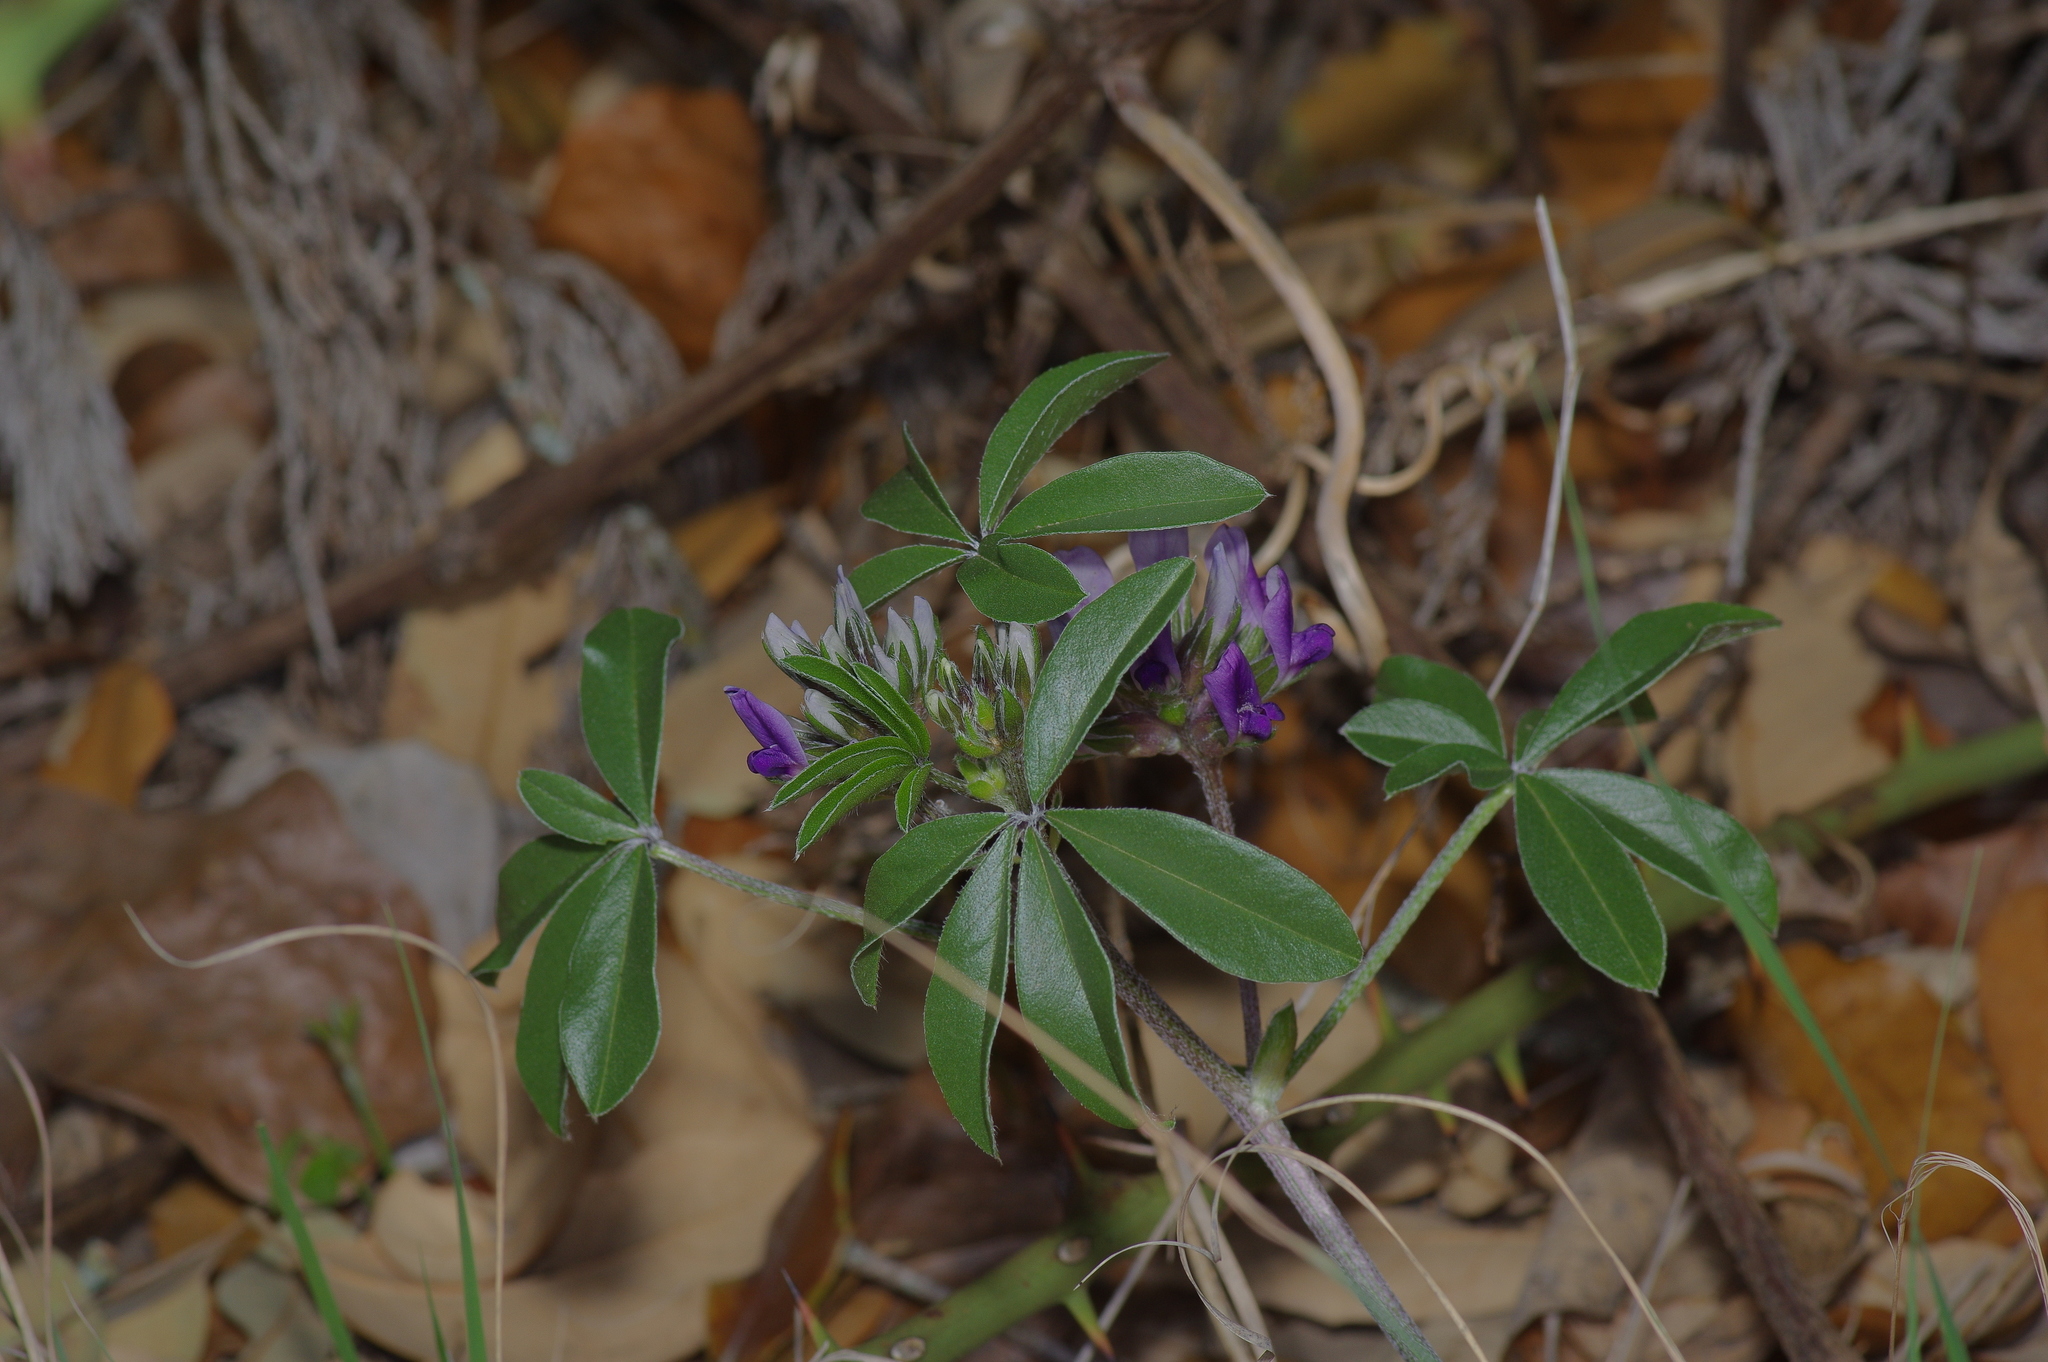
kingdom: Plantae
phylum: Tracheophyta
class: Magnoliopsida
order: Fabales
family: Fabaceae
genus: Pediomelum
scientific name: Pediomelum latestipulatum
